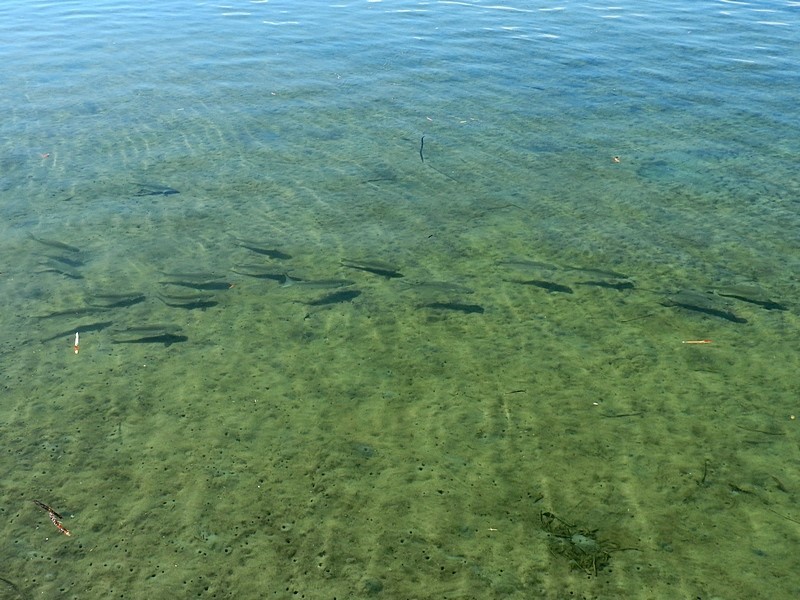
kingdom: Animalia
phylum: Chordata
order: Perciformes
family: Sillaginidae
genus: Sillago
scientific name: Sillago ciliata
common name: Sand sillago
